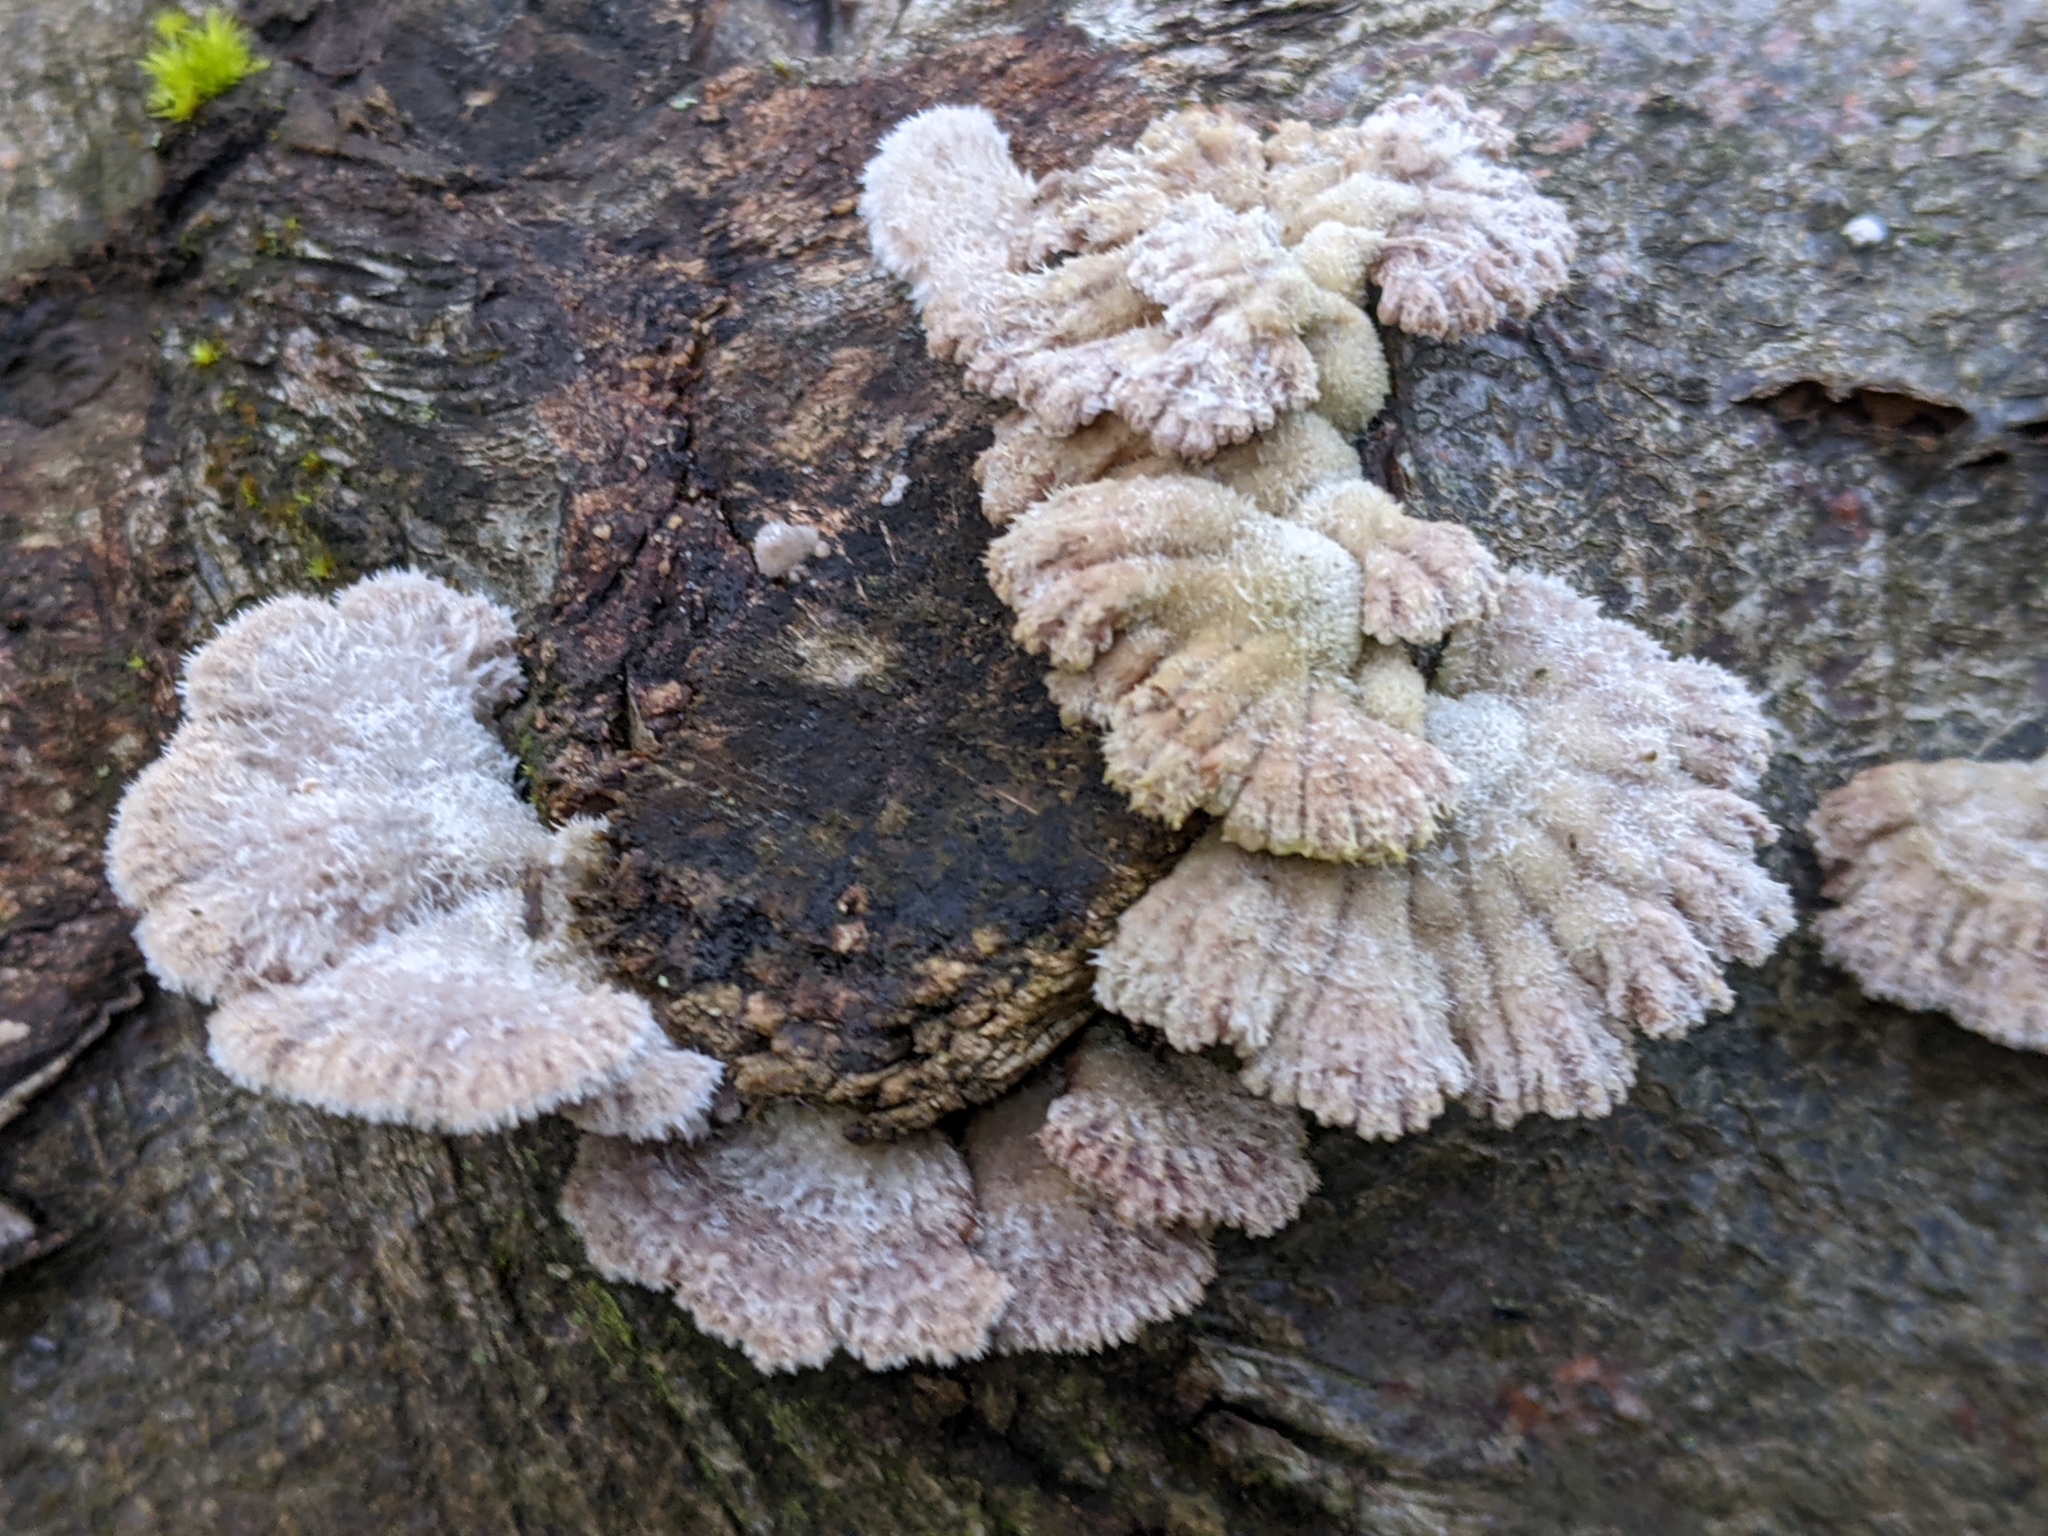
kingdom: Fungi
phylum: Basidiomycota
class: Agaricomycetes
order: Agaricales
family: Schizophyllaceae
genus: Schizophyllum
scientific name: Schizophyllum commune
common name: Common porecrust
